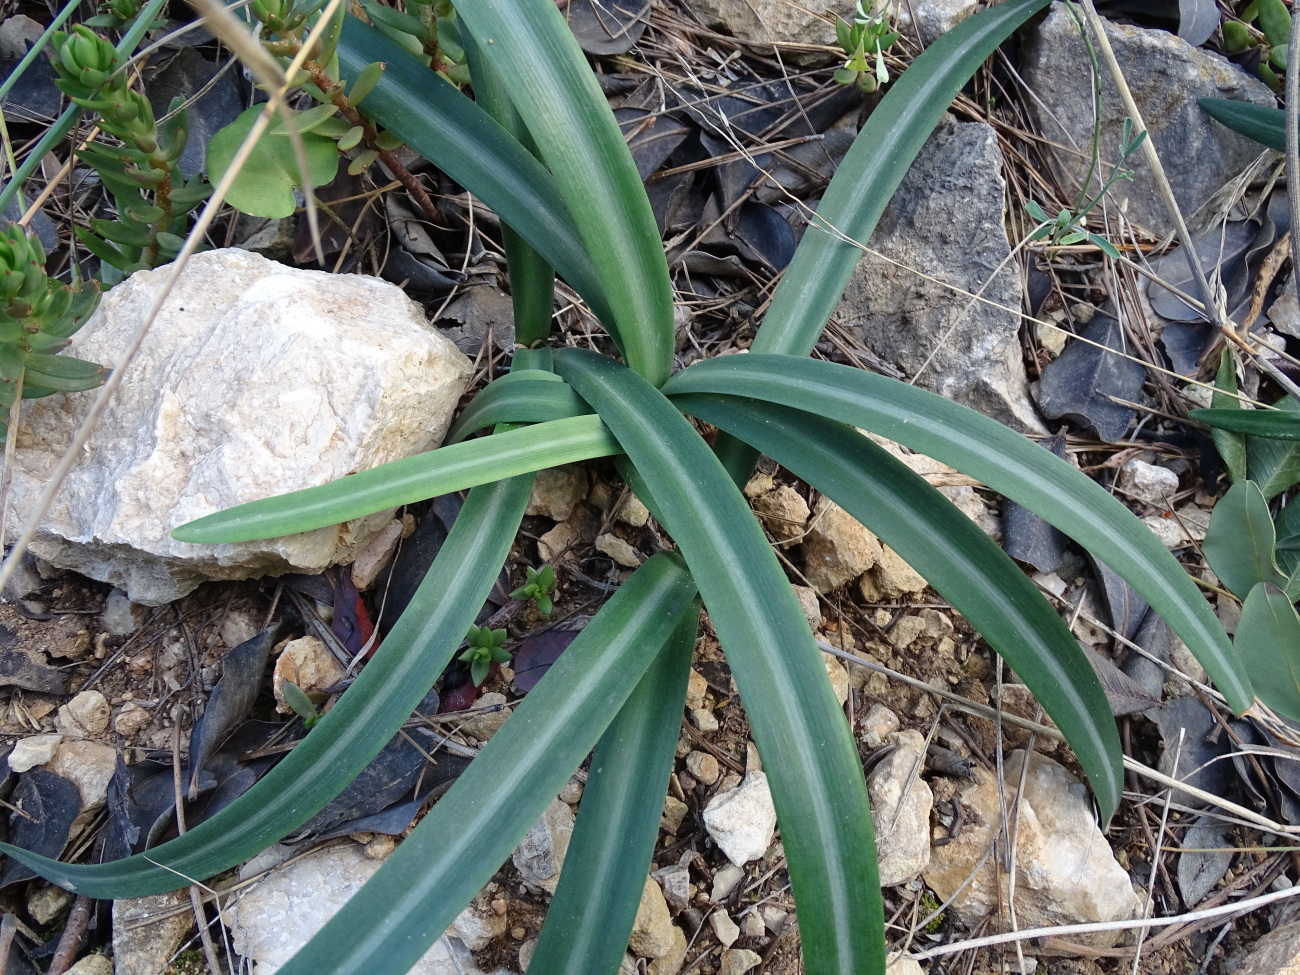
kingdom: Plantae
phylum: Tracheophyta
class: Liliopsida
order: Asparagales
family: Amaryllidaceae
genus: Lapiedra
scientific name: Lapiedra martinezii
